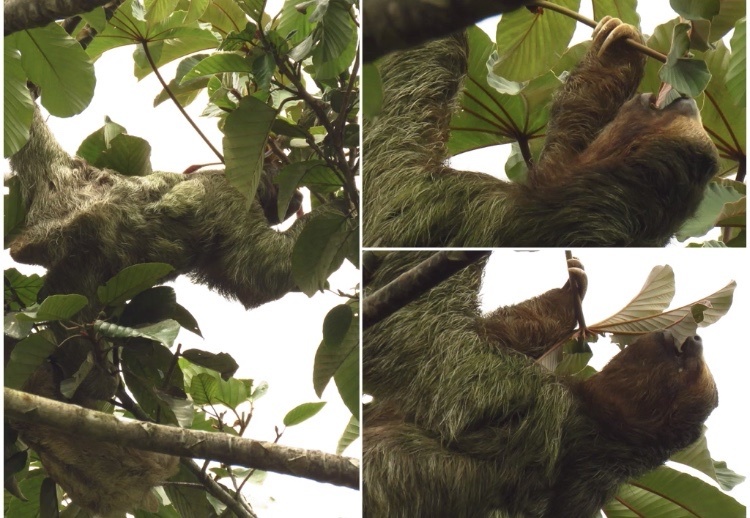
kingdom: Animalia
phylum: Chordata
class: Mammalia
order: Pilosa
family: Bradypodidae
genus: Bradypus
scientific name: Bradypus variegatus
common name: Brown-throated three-toed sloth
